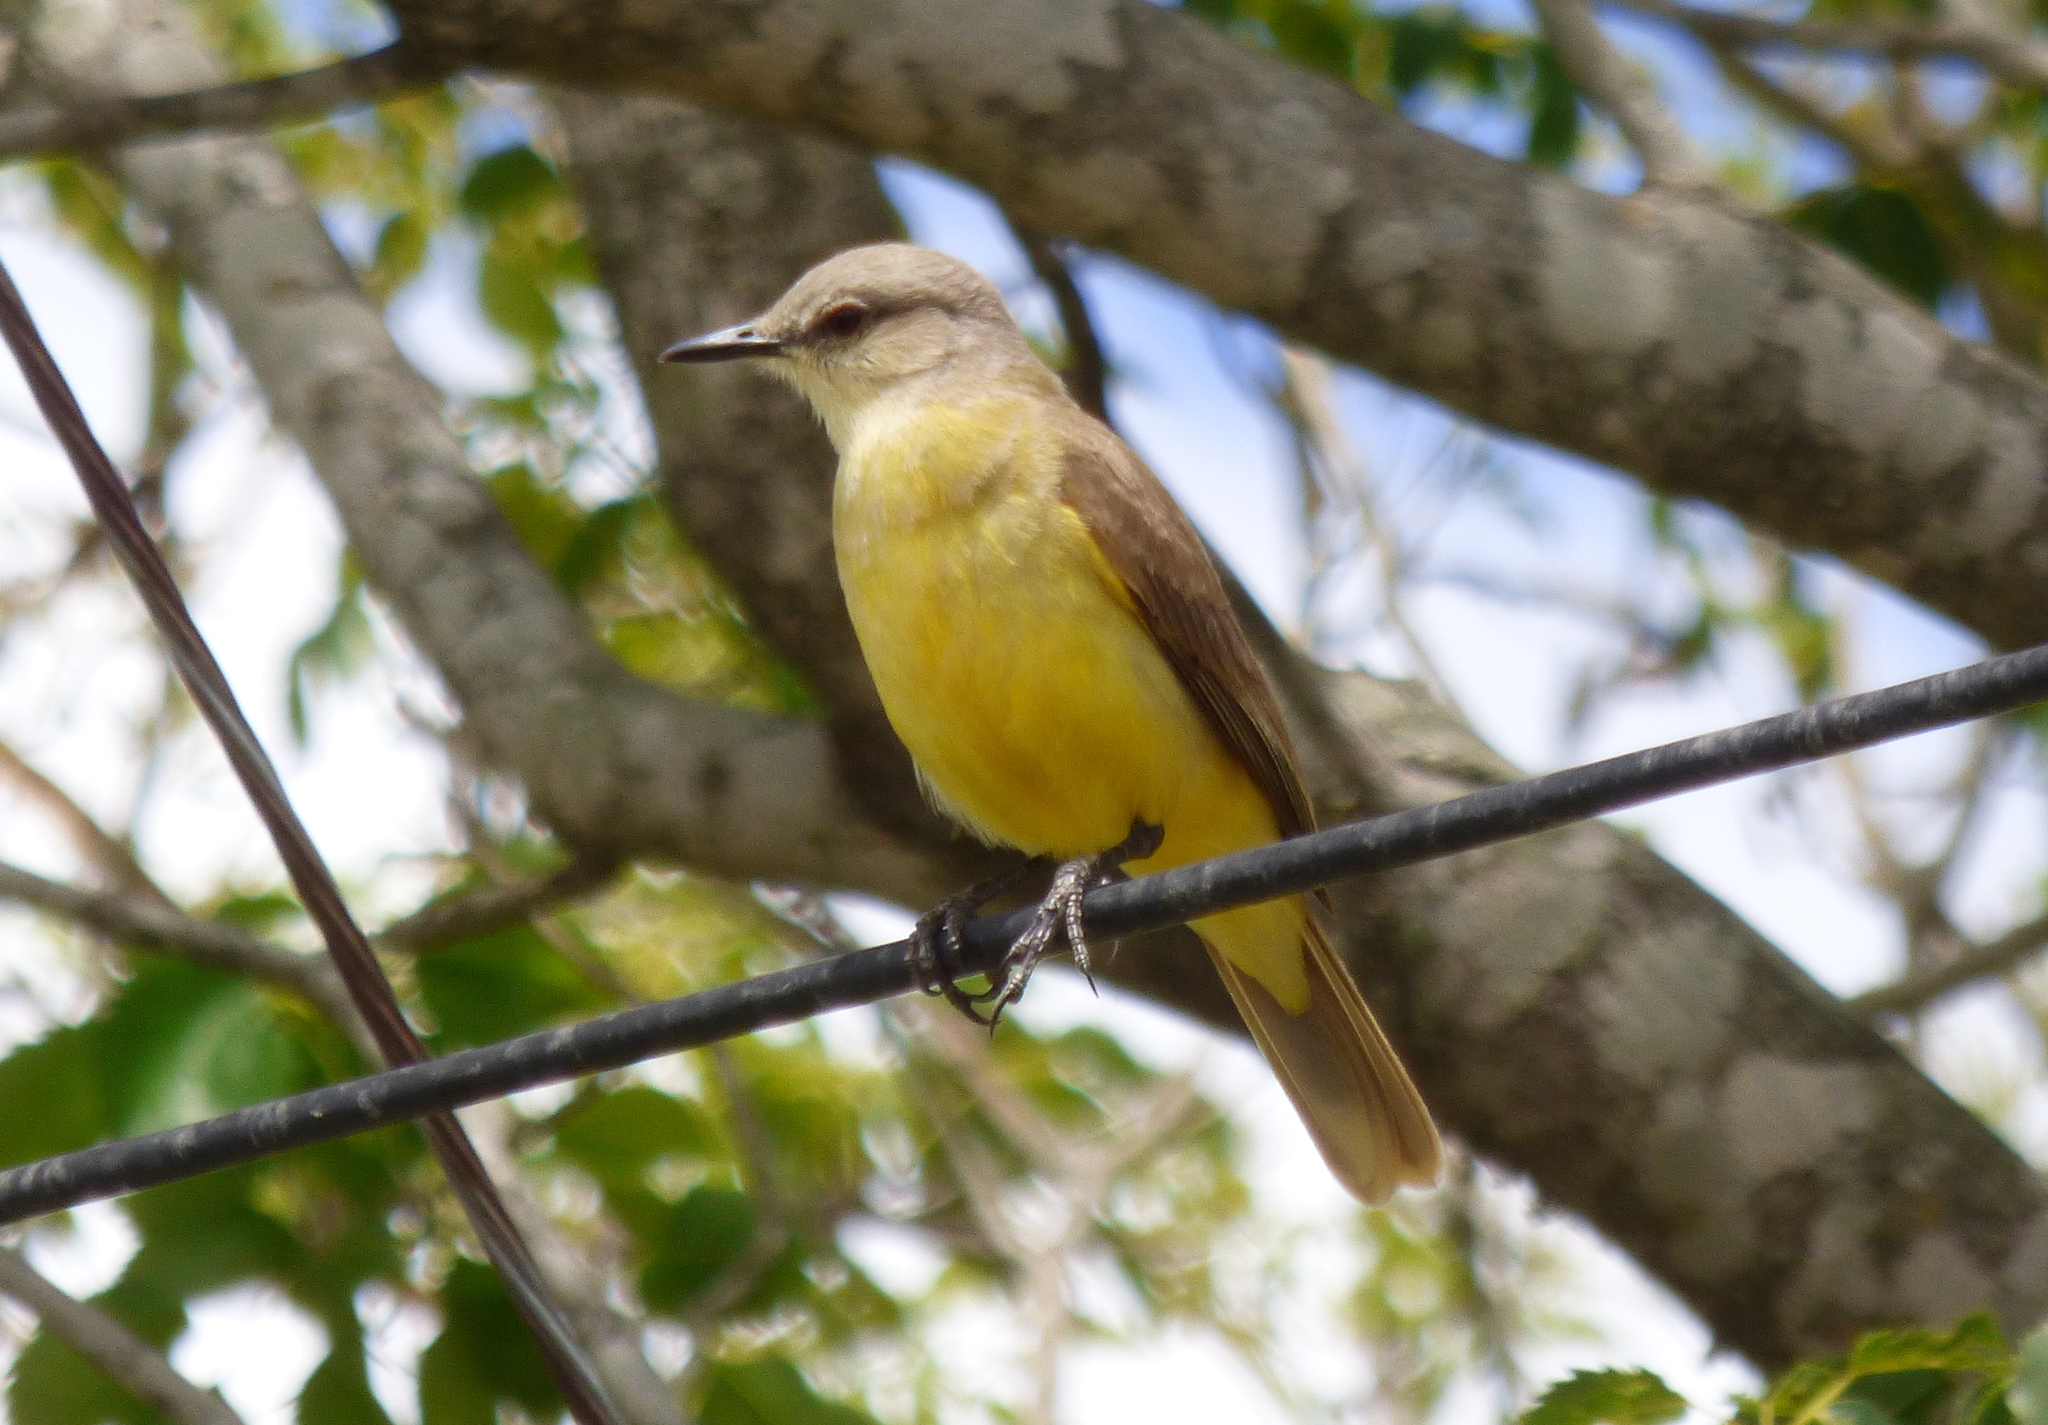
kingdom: Animalia
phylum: Chordata
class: Aves
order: Passeriformes
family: Tyrannidae
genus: Machetornis
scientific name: Machetornis rixosa
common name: Cattle tyrant
